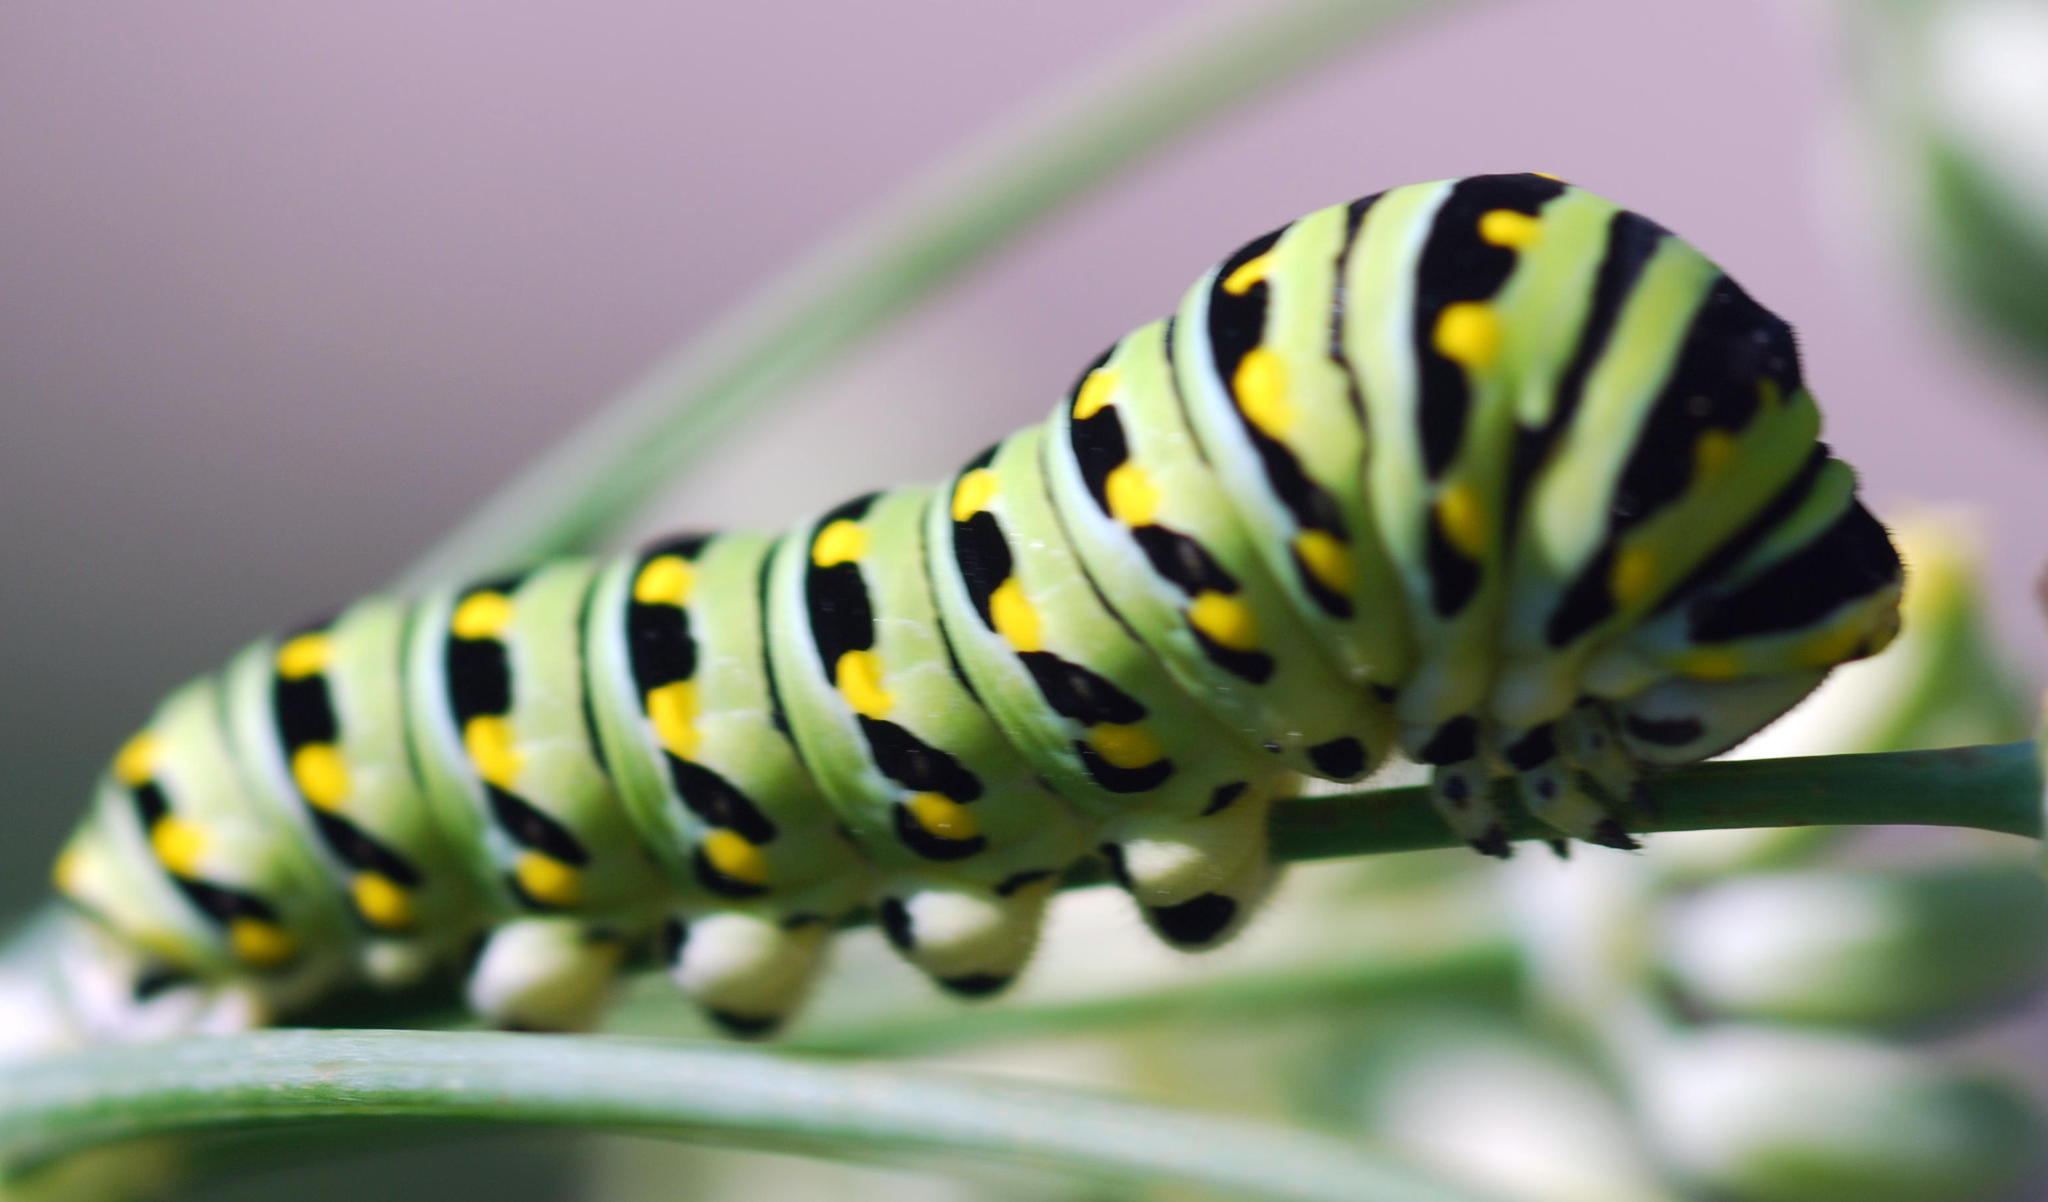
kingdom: Animalia
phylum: Arthropoda
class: Insecta
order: Lepidoptera
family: Papilionidae
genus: Papilio
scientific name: Papilio polyxenes
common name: Black swallowtail
